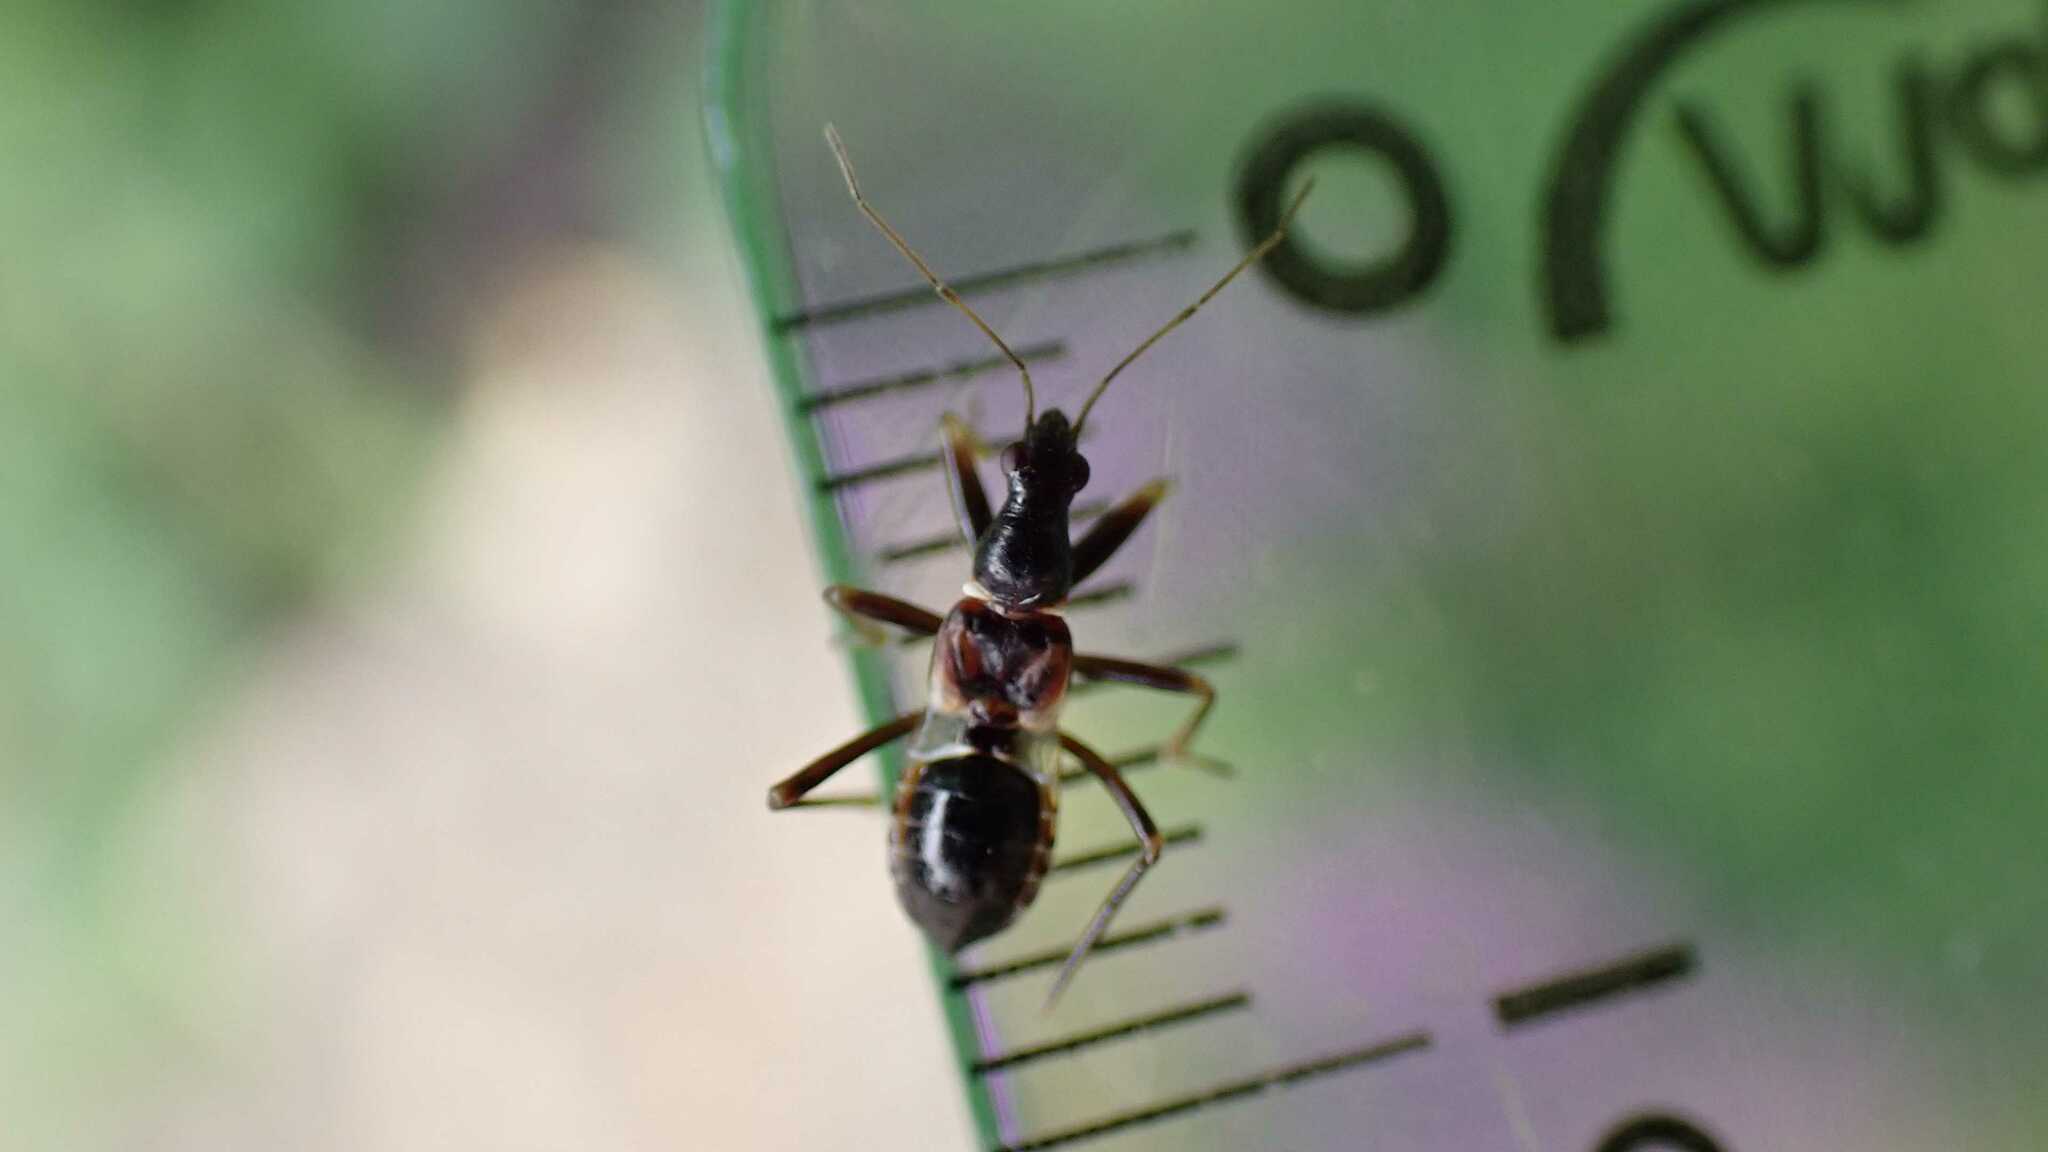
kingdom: Animalia
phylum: Arthropoda
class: Insecta
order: Hemiptera
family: Nabidae
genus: Himacerus
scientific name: Himacerus mirmicoides
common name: Ant damsel bug
